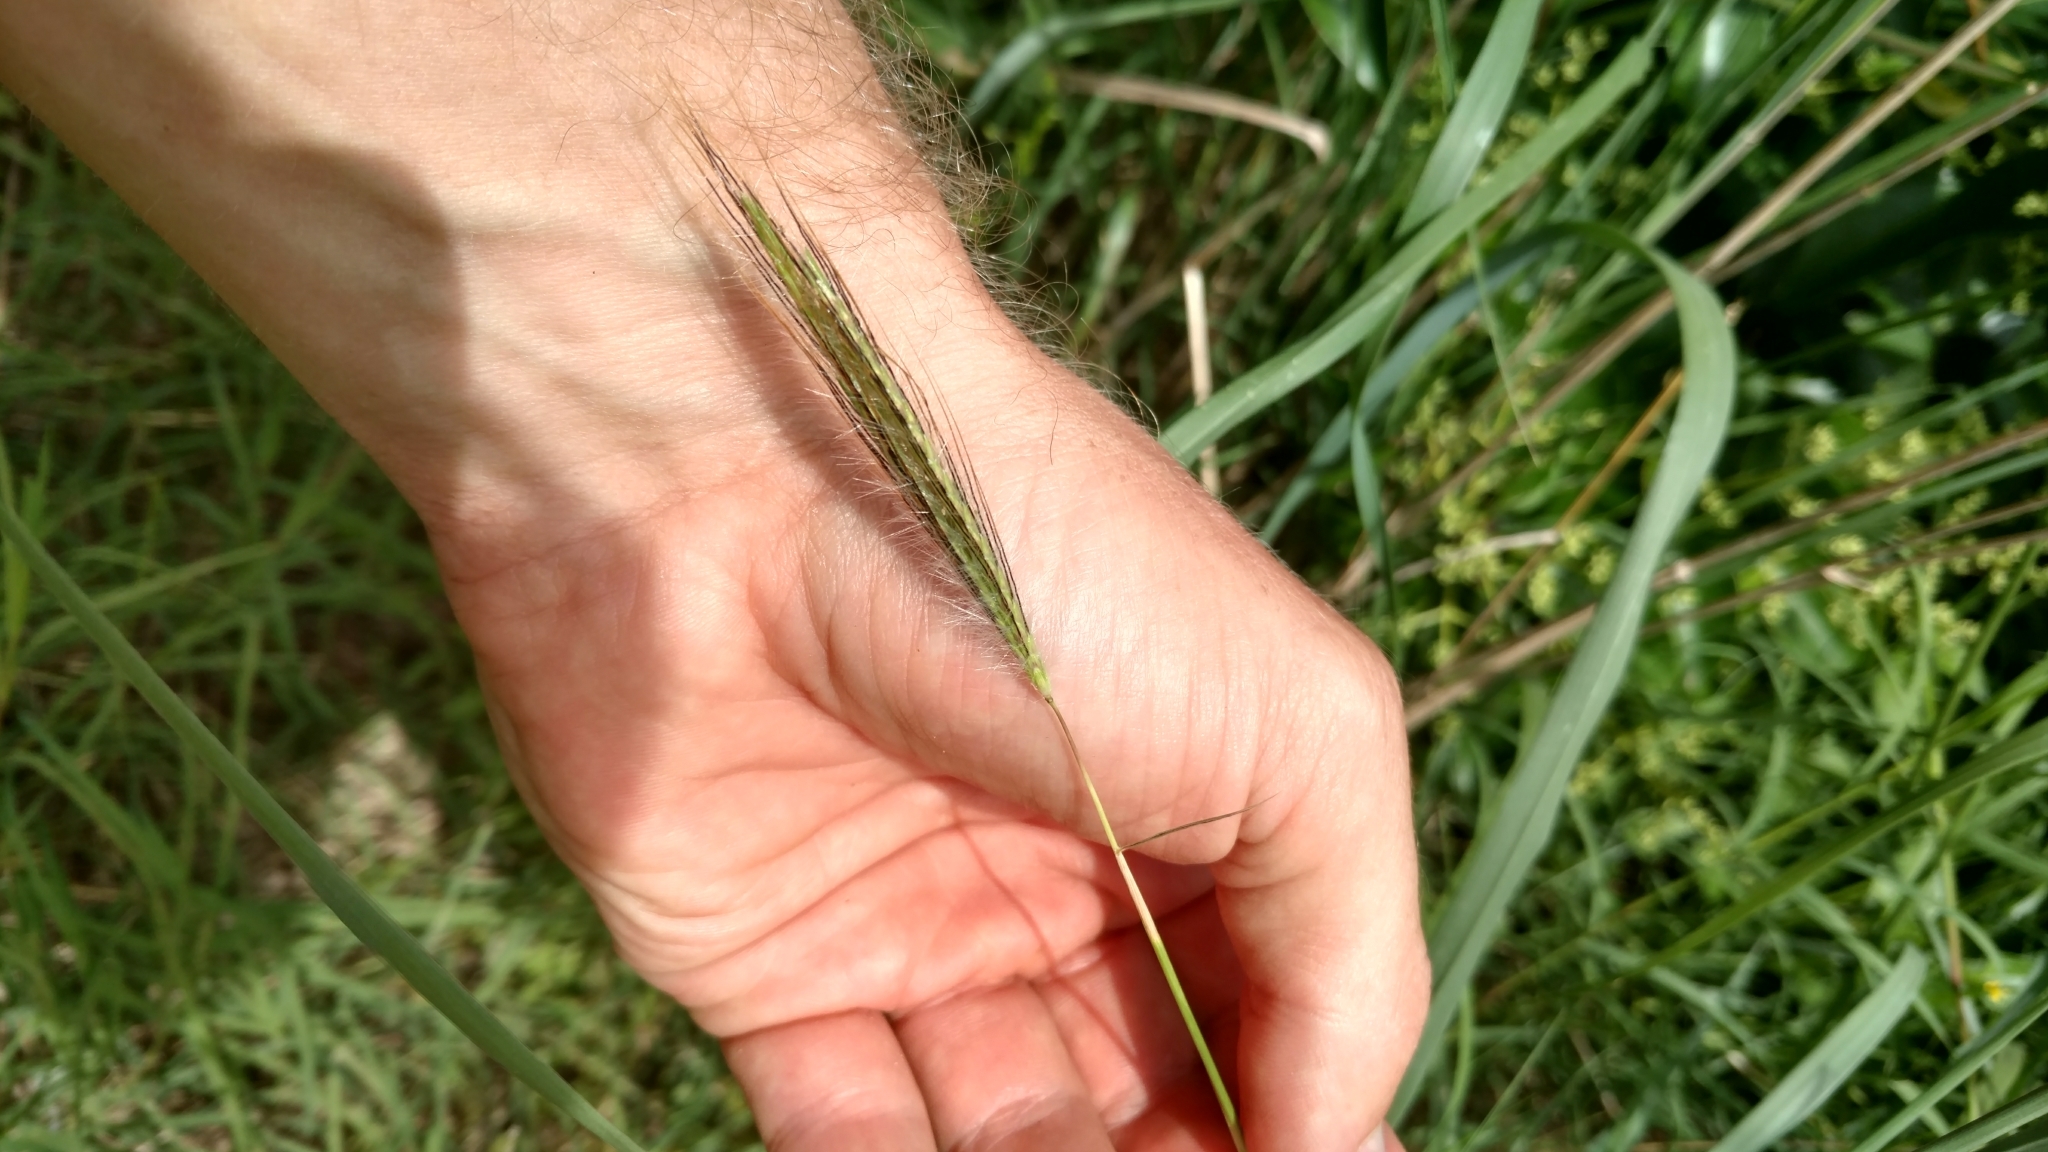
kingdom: Plantae
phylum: Tracheophyta
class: Liliopsida
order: Poales
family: Poaceae
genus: Dichanthium
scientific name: Dichanthium sericeum
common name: Silky bluestem
